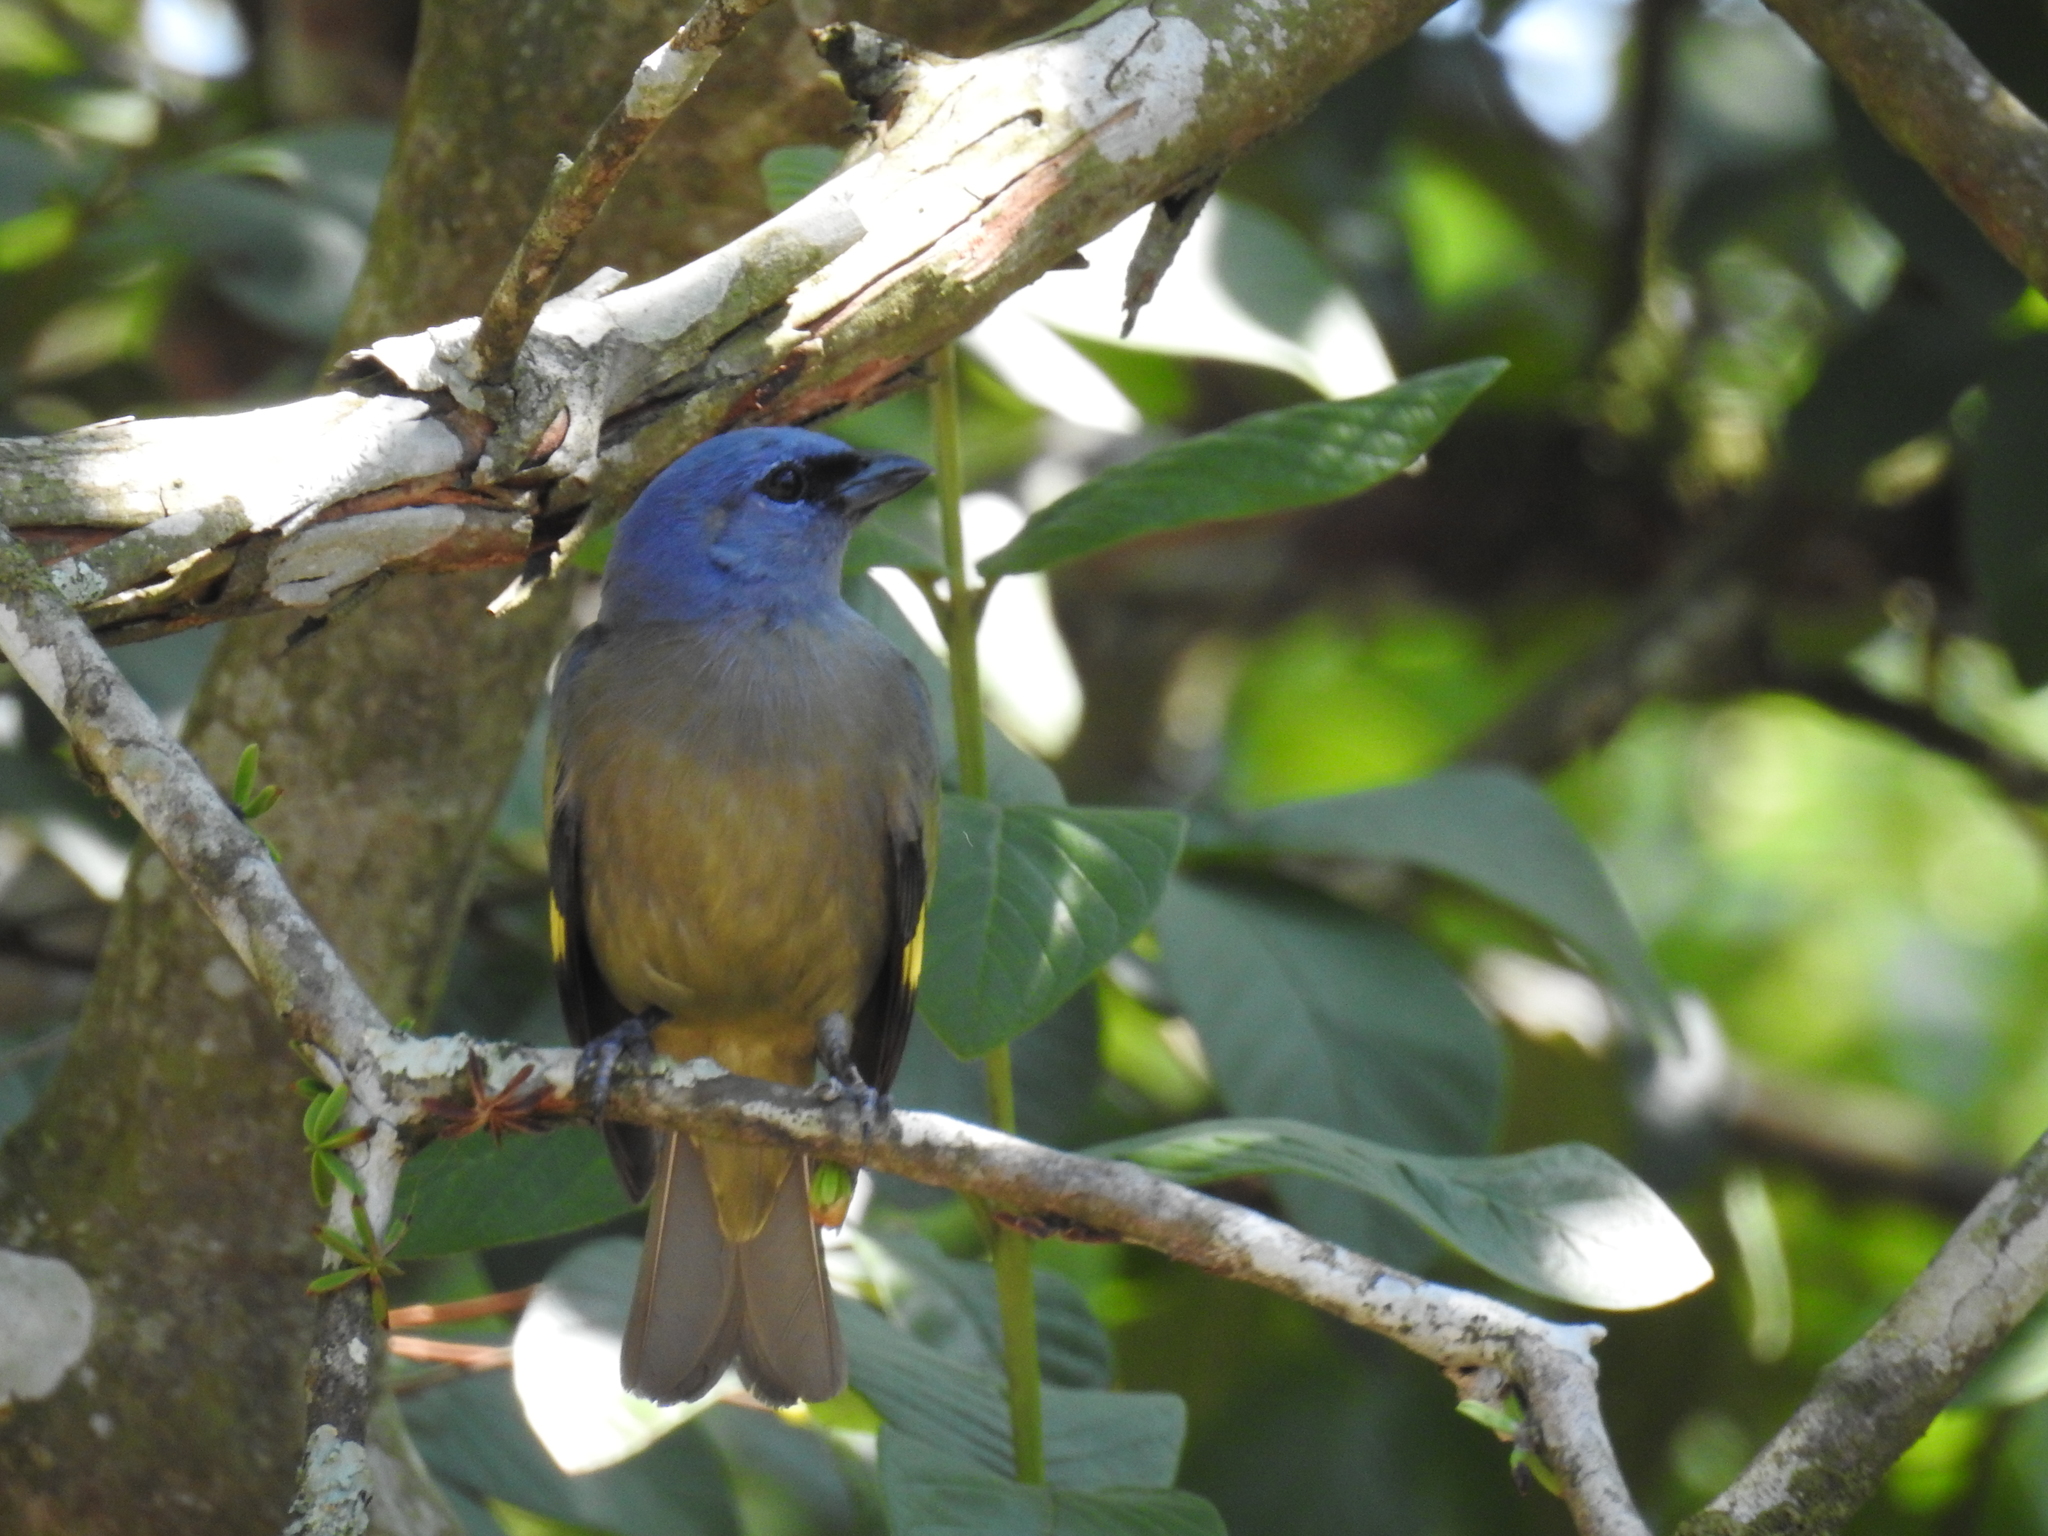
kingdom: Animalia
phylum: Chordata
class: Aves
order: Passeriformes
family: Thraupidae
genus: Thraupis
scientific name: Thraupis abbas
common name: Yellow-winged tanager
